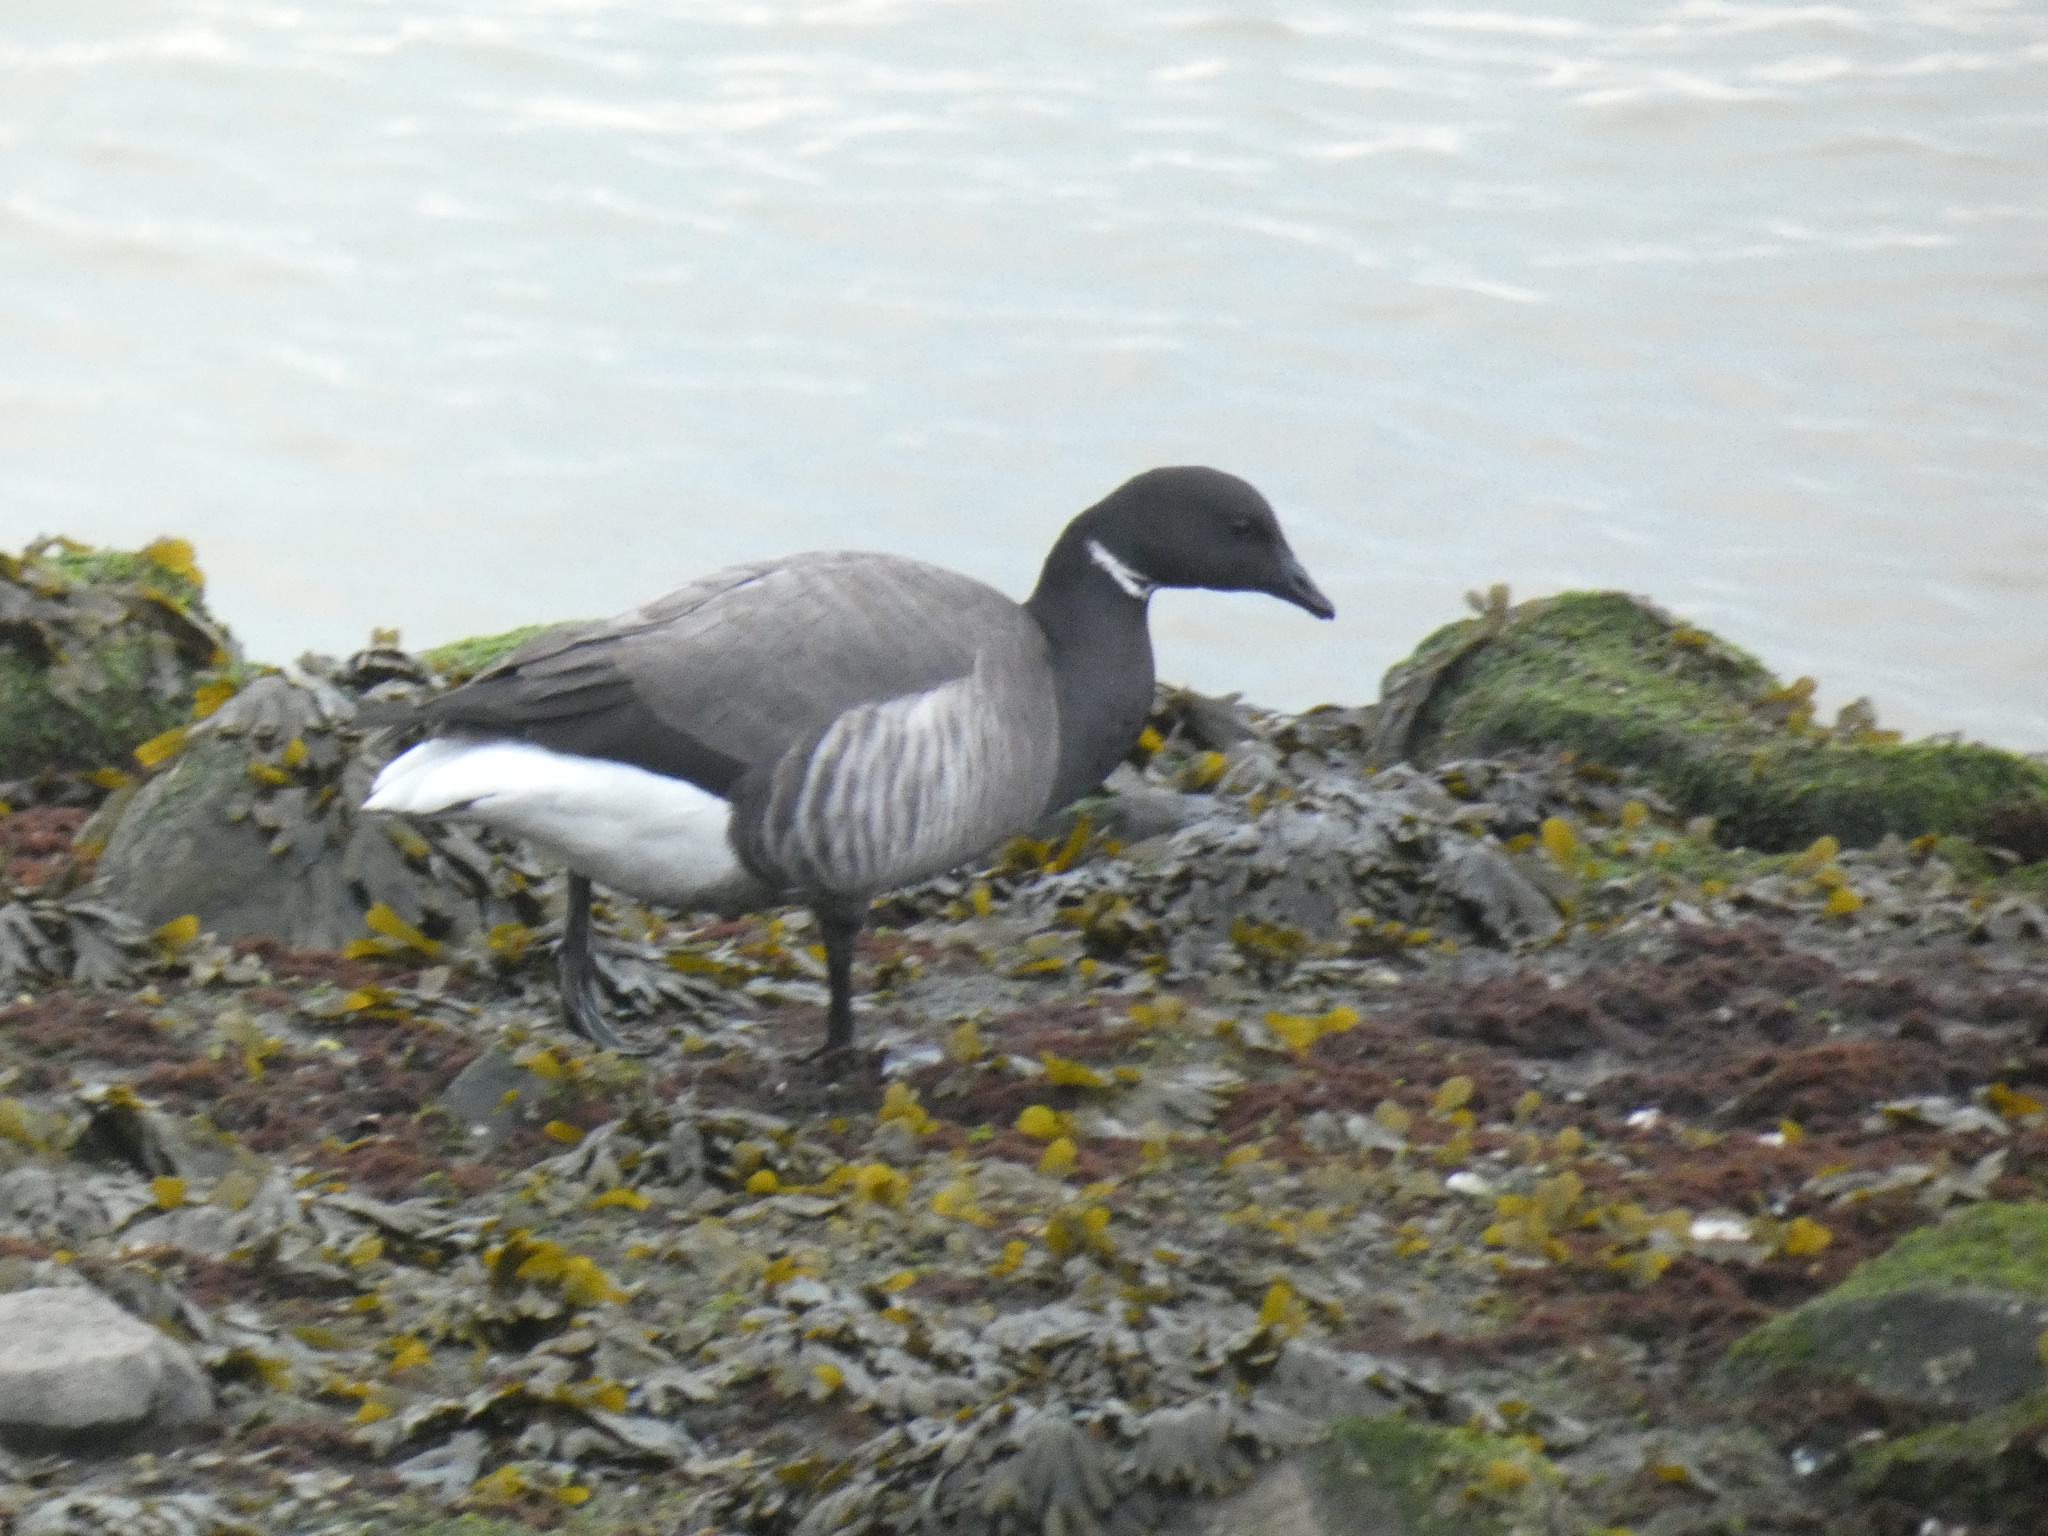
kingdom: Animalia
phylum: Chordata
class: Aves
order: Anseriformes
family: Anatidae
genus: Branta
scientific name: Branta bernicla
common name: Brant goose
